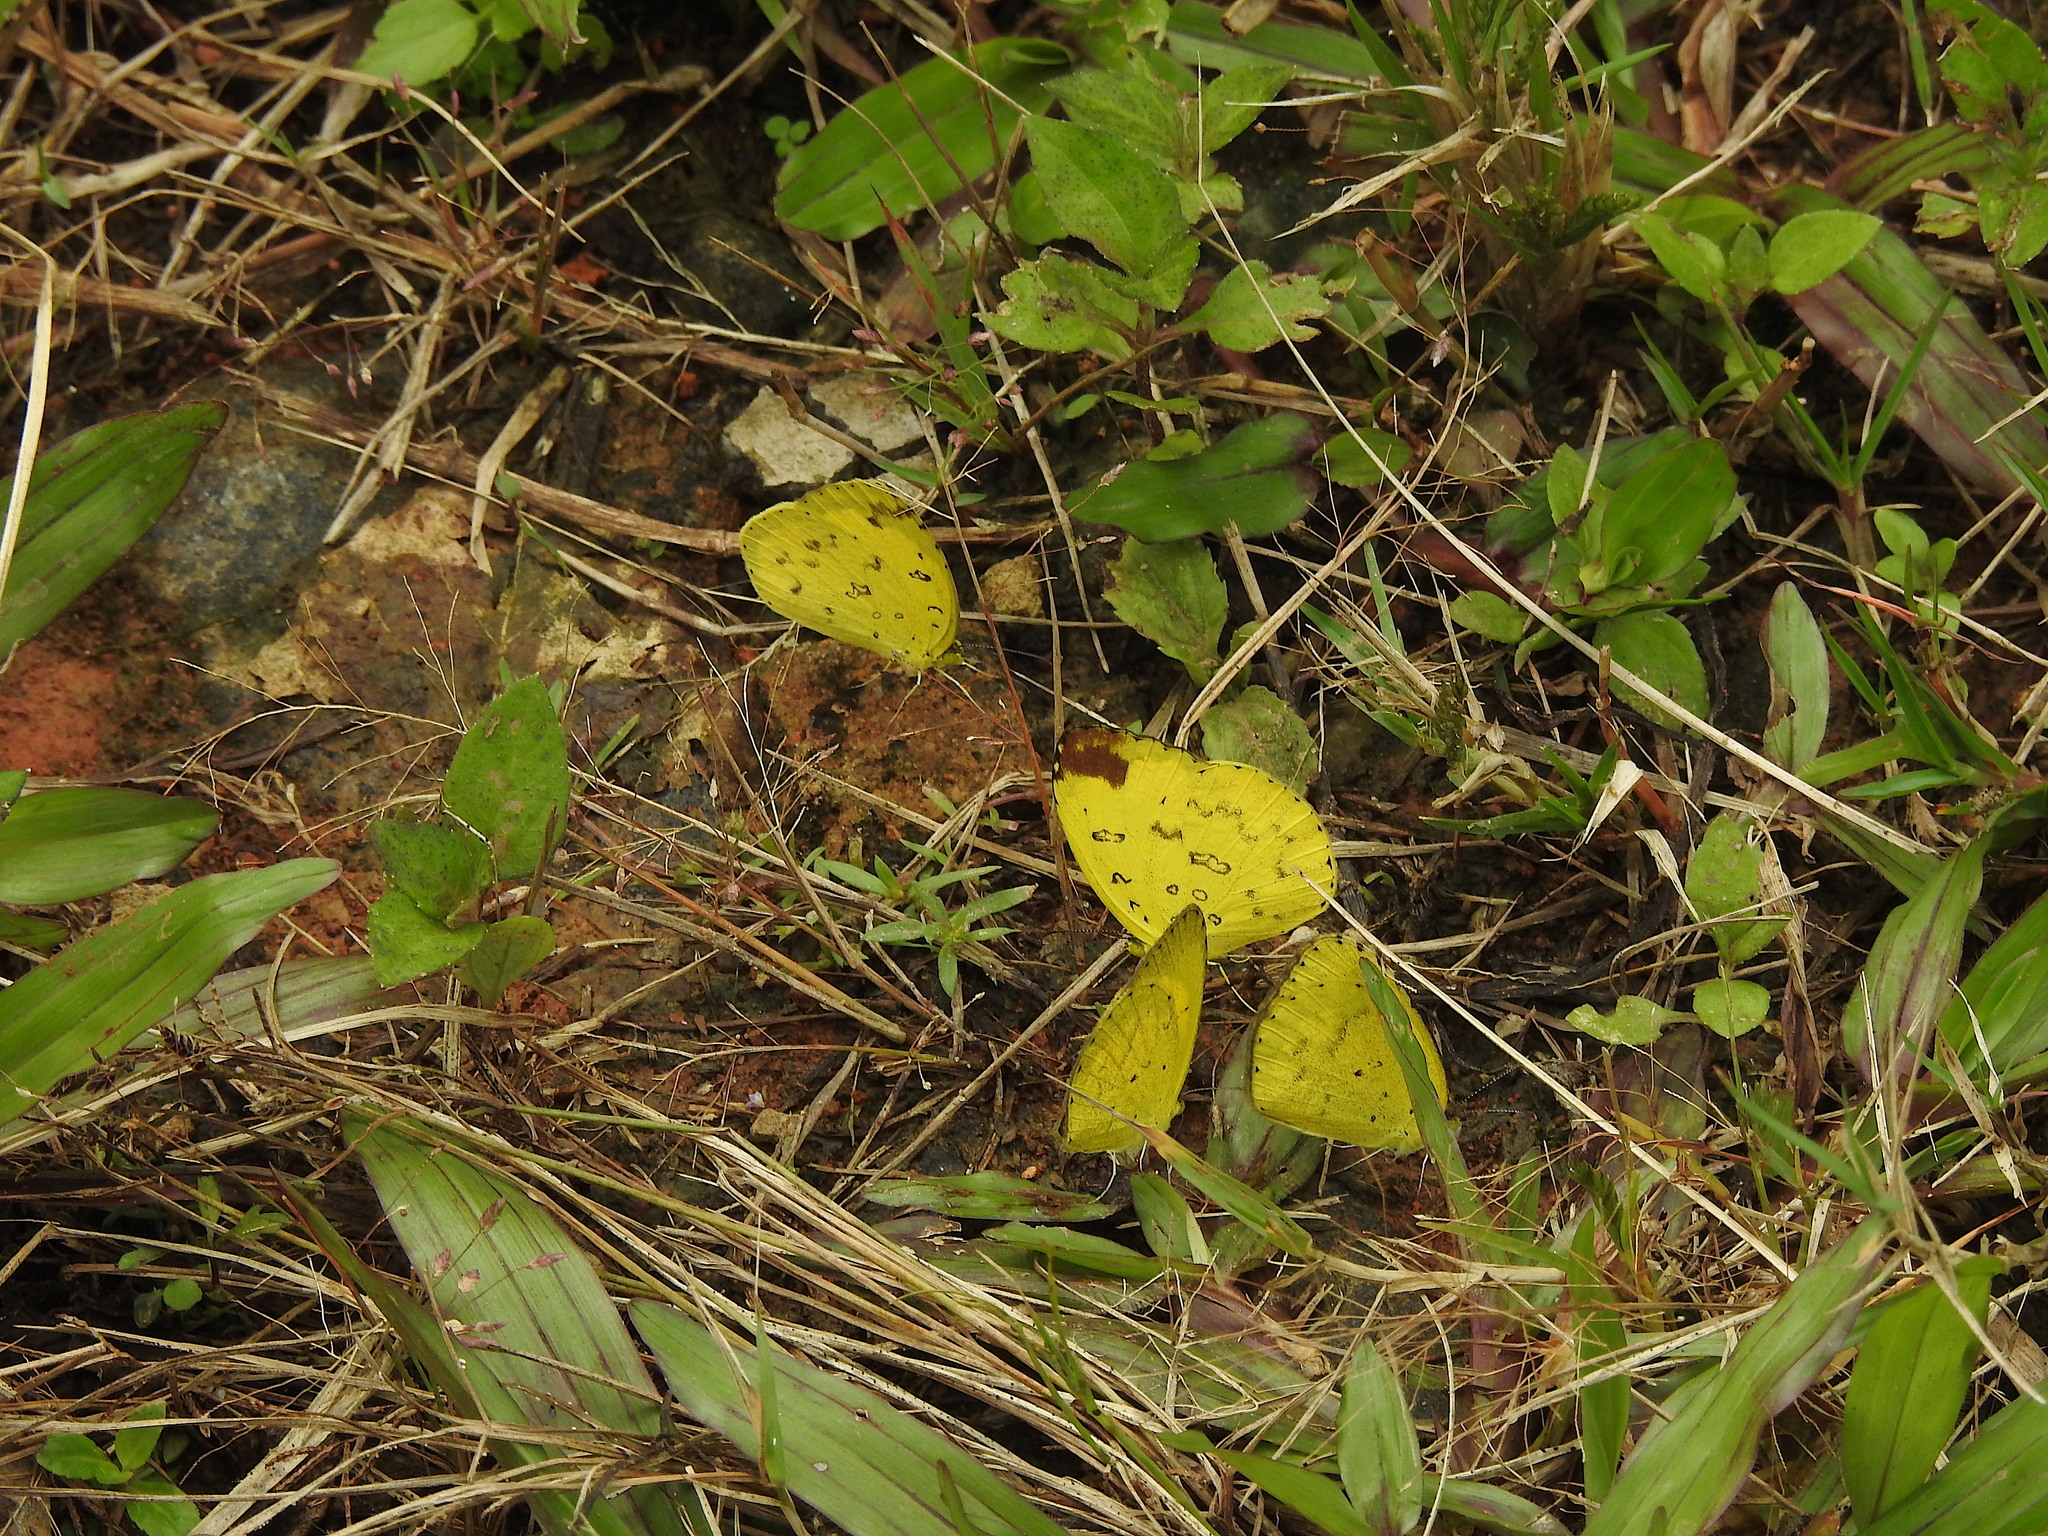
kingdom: Animalia
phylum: Arthropoda
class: Insecta
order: Lepidoptera
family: Pieridae
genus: Eurema
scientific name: Eurema brigitta
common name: Small grass yellow
